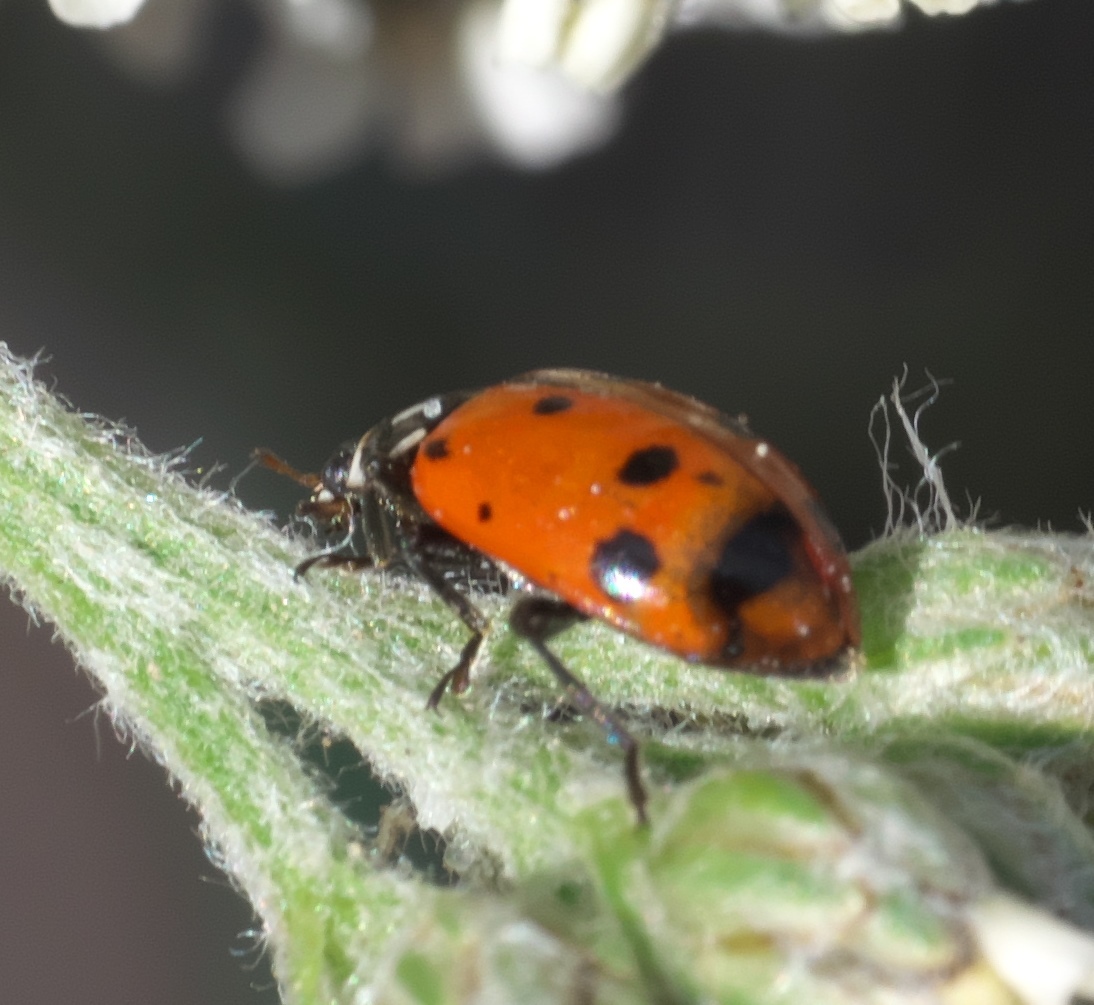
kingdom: Animalia
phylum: Arthropoda
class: Insecta
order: Coleoptera
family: Coccinellidae
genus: Hippodamia
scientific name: Hippodamia convergens
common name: Convergent lady beetle
